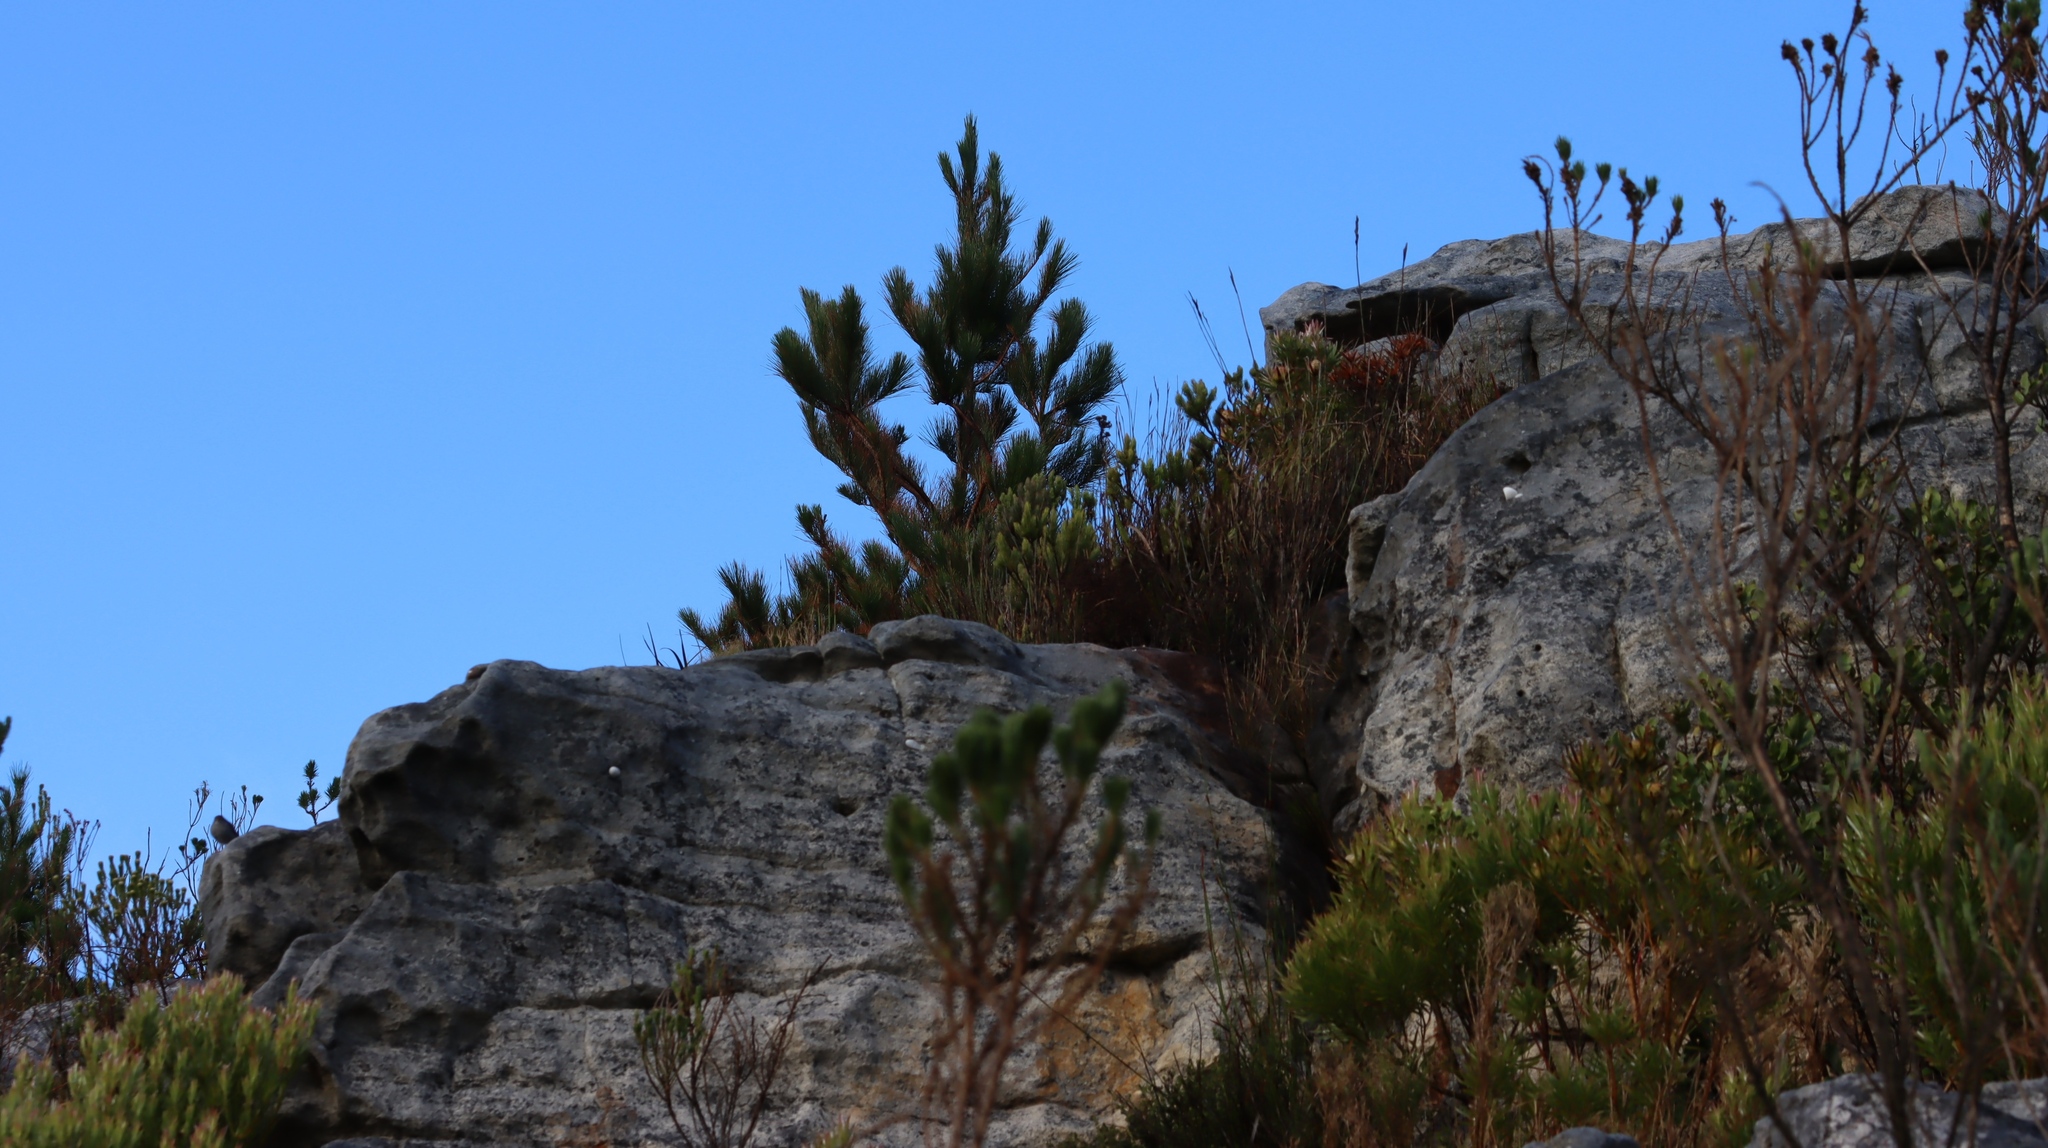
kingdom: Plantae
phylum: Tracheophyta
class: Pinopsida
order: Pinales
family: Pinaceae
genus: Pinus
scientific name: Pinus radiata
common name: Monterey pine
